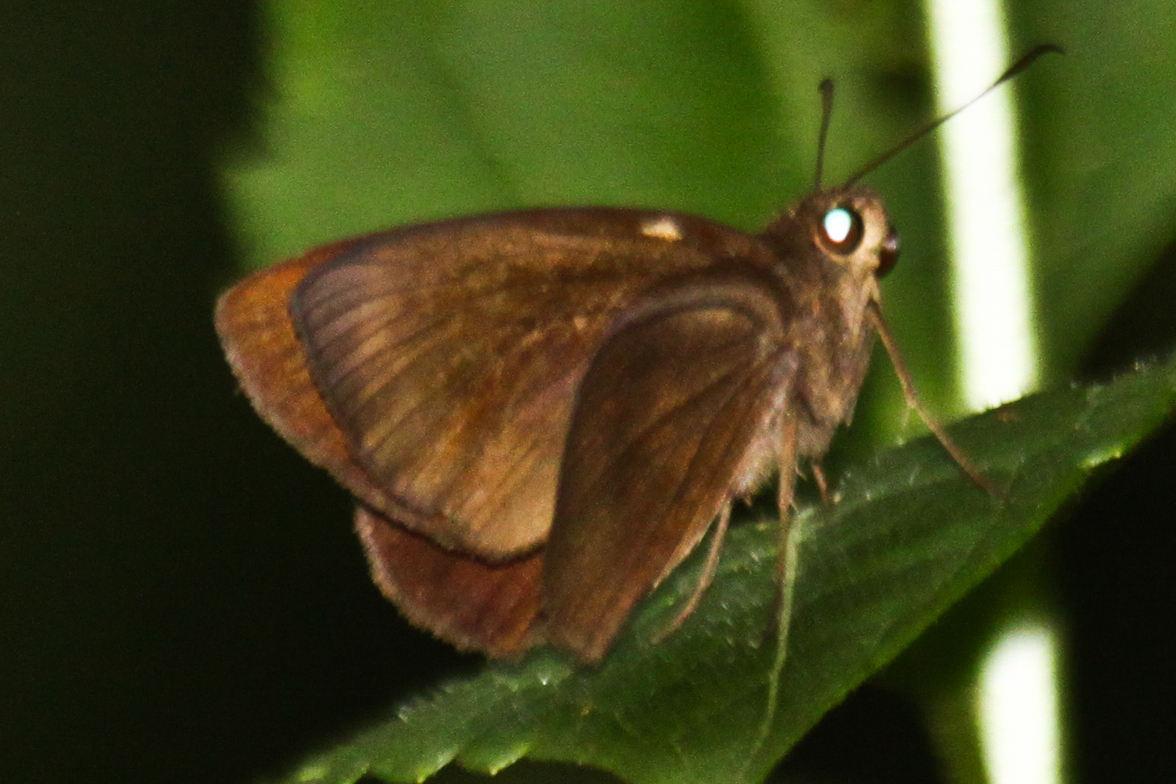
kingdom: Animalia
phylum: Arthropoda
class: Insecta
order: Lepidoptera
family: Hesperiidae
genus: Ancistroides
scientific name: Ancistroides nigrita
